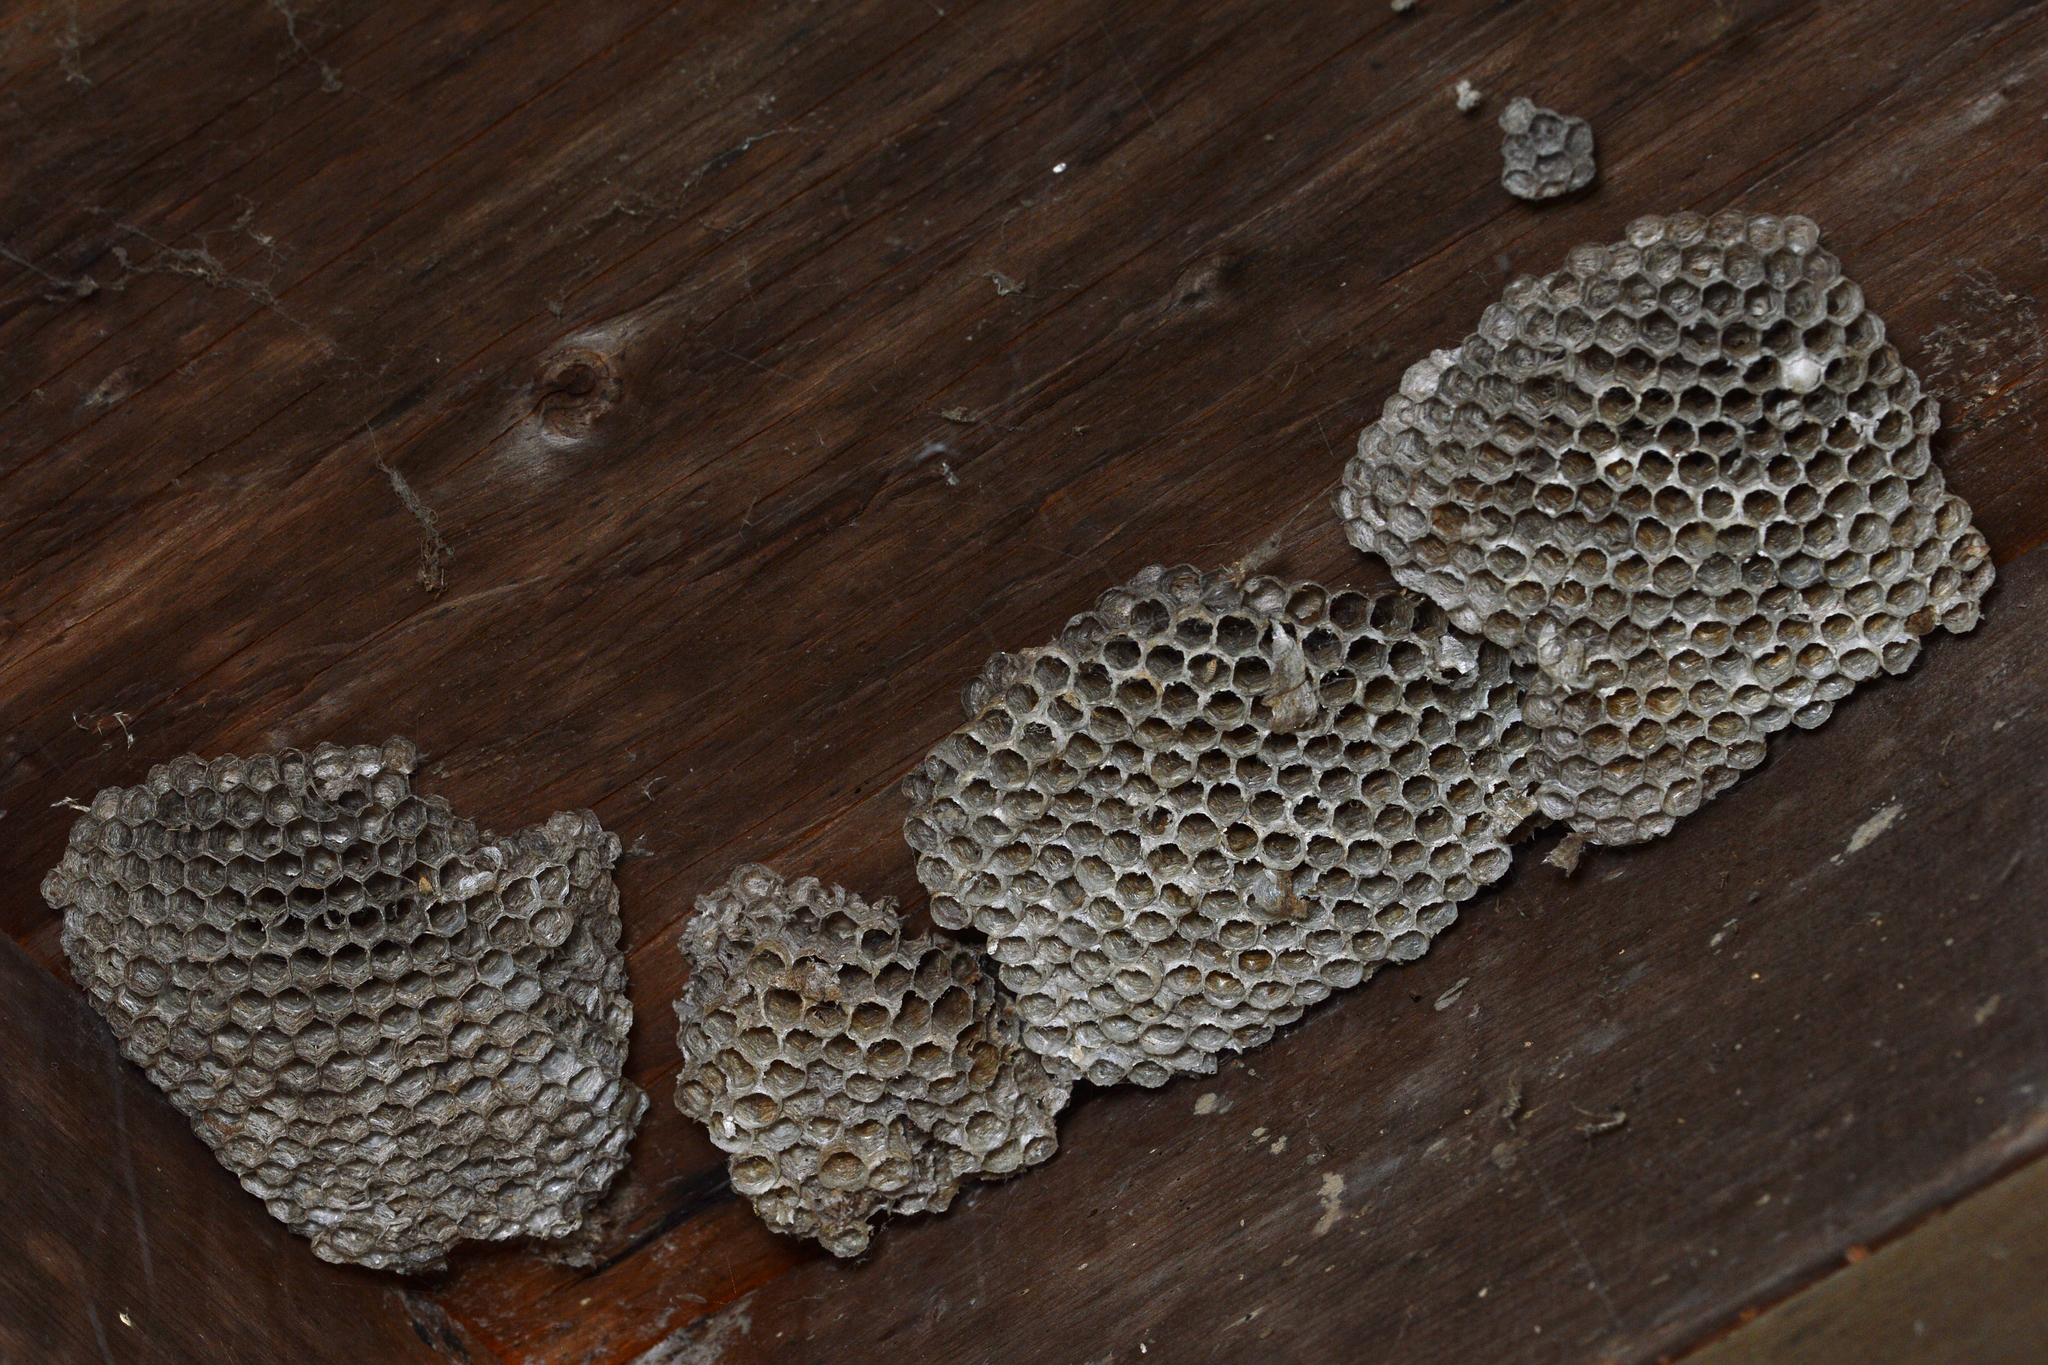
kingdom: Animalia
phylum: Arthropoda
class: Insecta
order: Hymenoptera
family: Eumenidae
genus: Polistes
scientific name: Polistes
